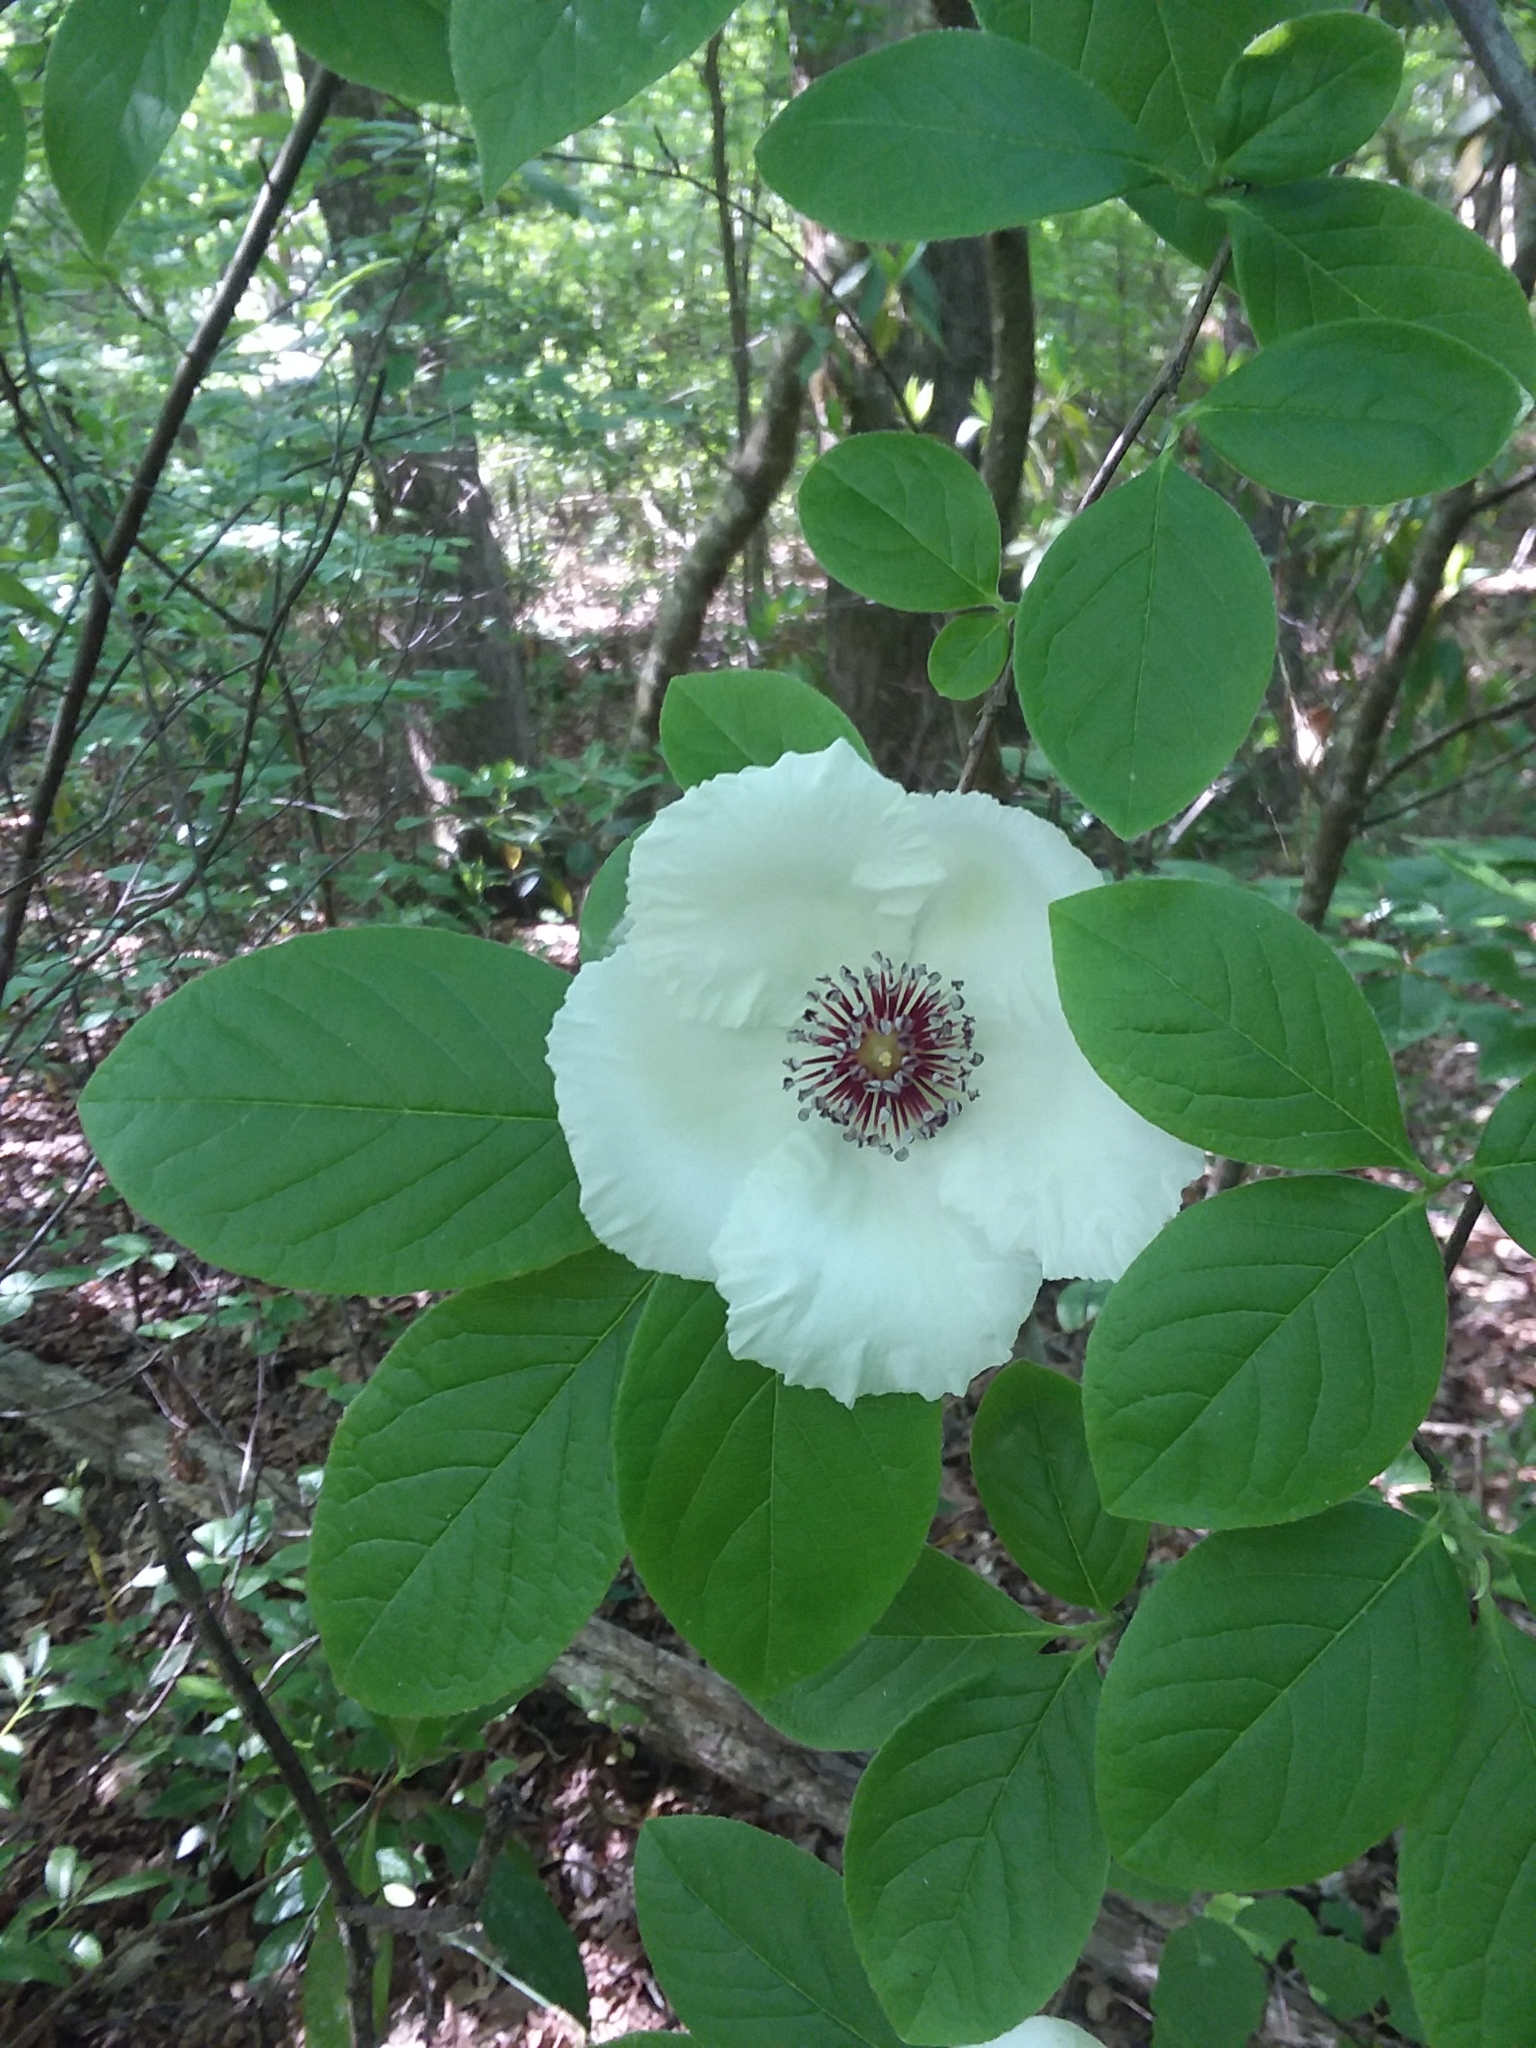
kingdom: Plantae
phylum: Tracheophyta
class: Magnoliopsida
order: Ericales
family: Theaceae
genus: Stewartia
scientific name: Stewartia malacodendron
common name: Virginia stewartia
